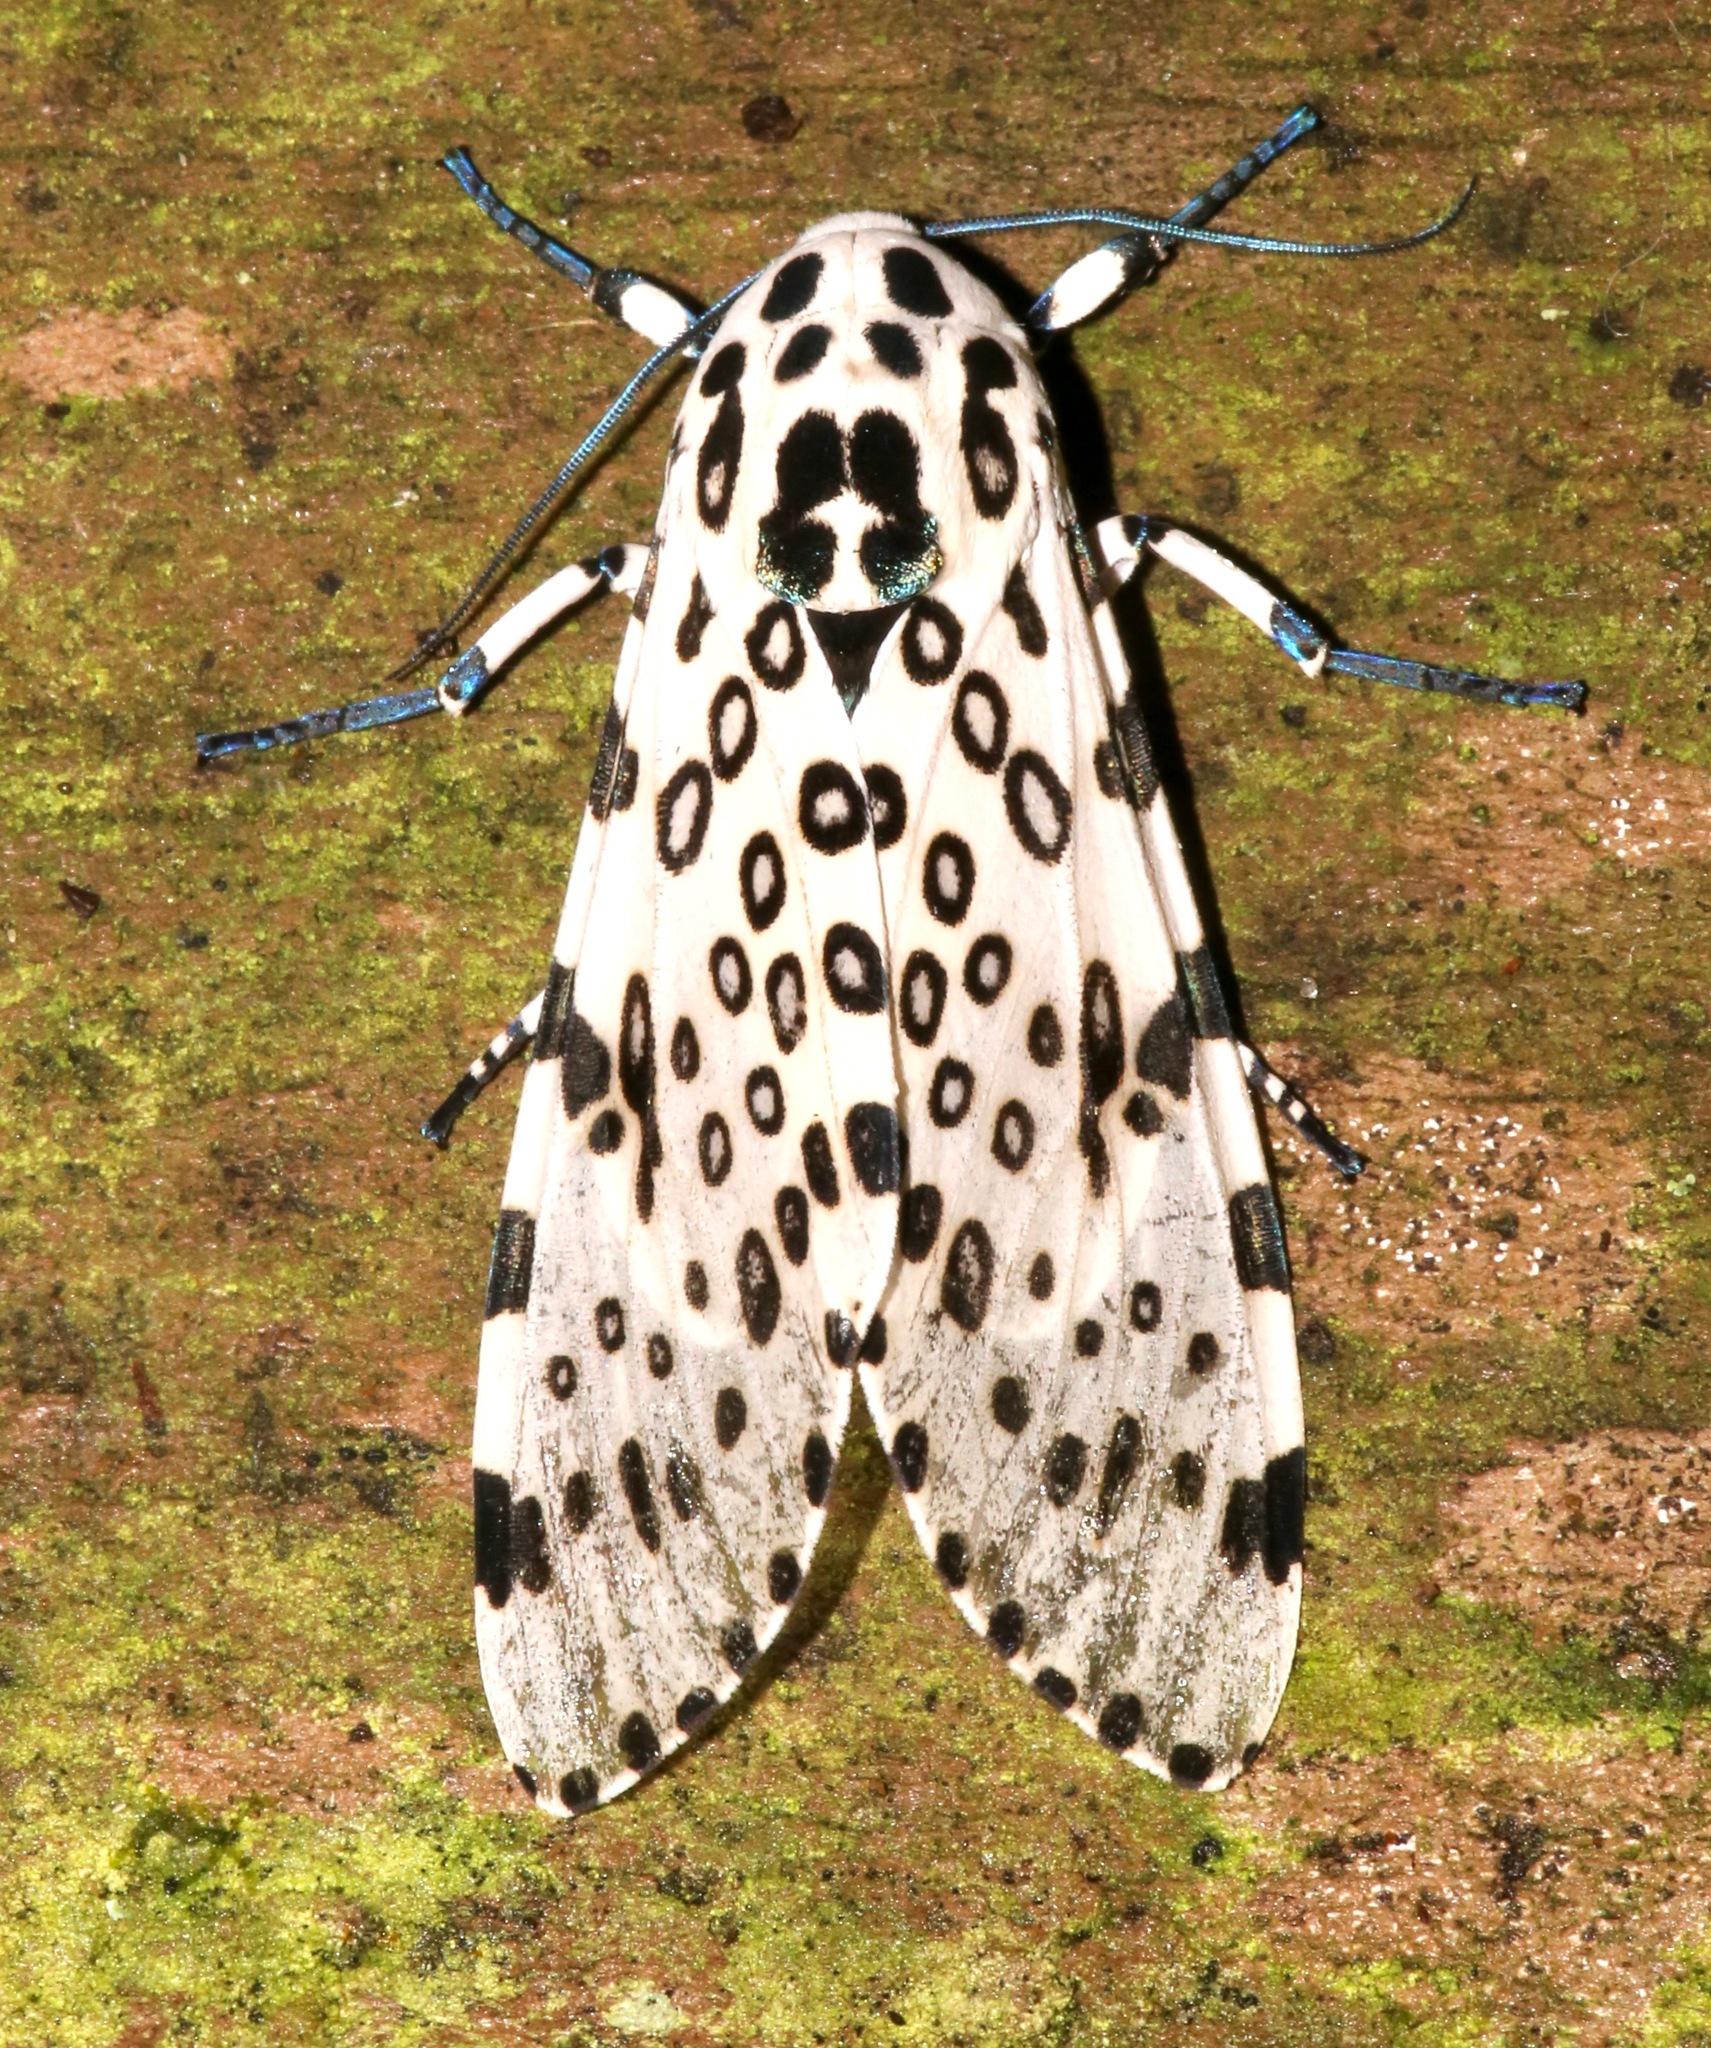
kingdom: Animalia
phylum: Arthropoda
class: Insecta
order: Lepidoptera
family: Erebidae
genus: Hypercompe
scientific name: Hypercompe scribonia
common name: Giant leopard moth
